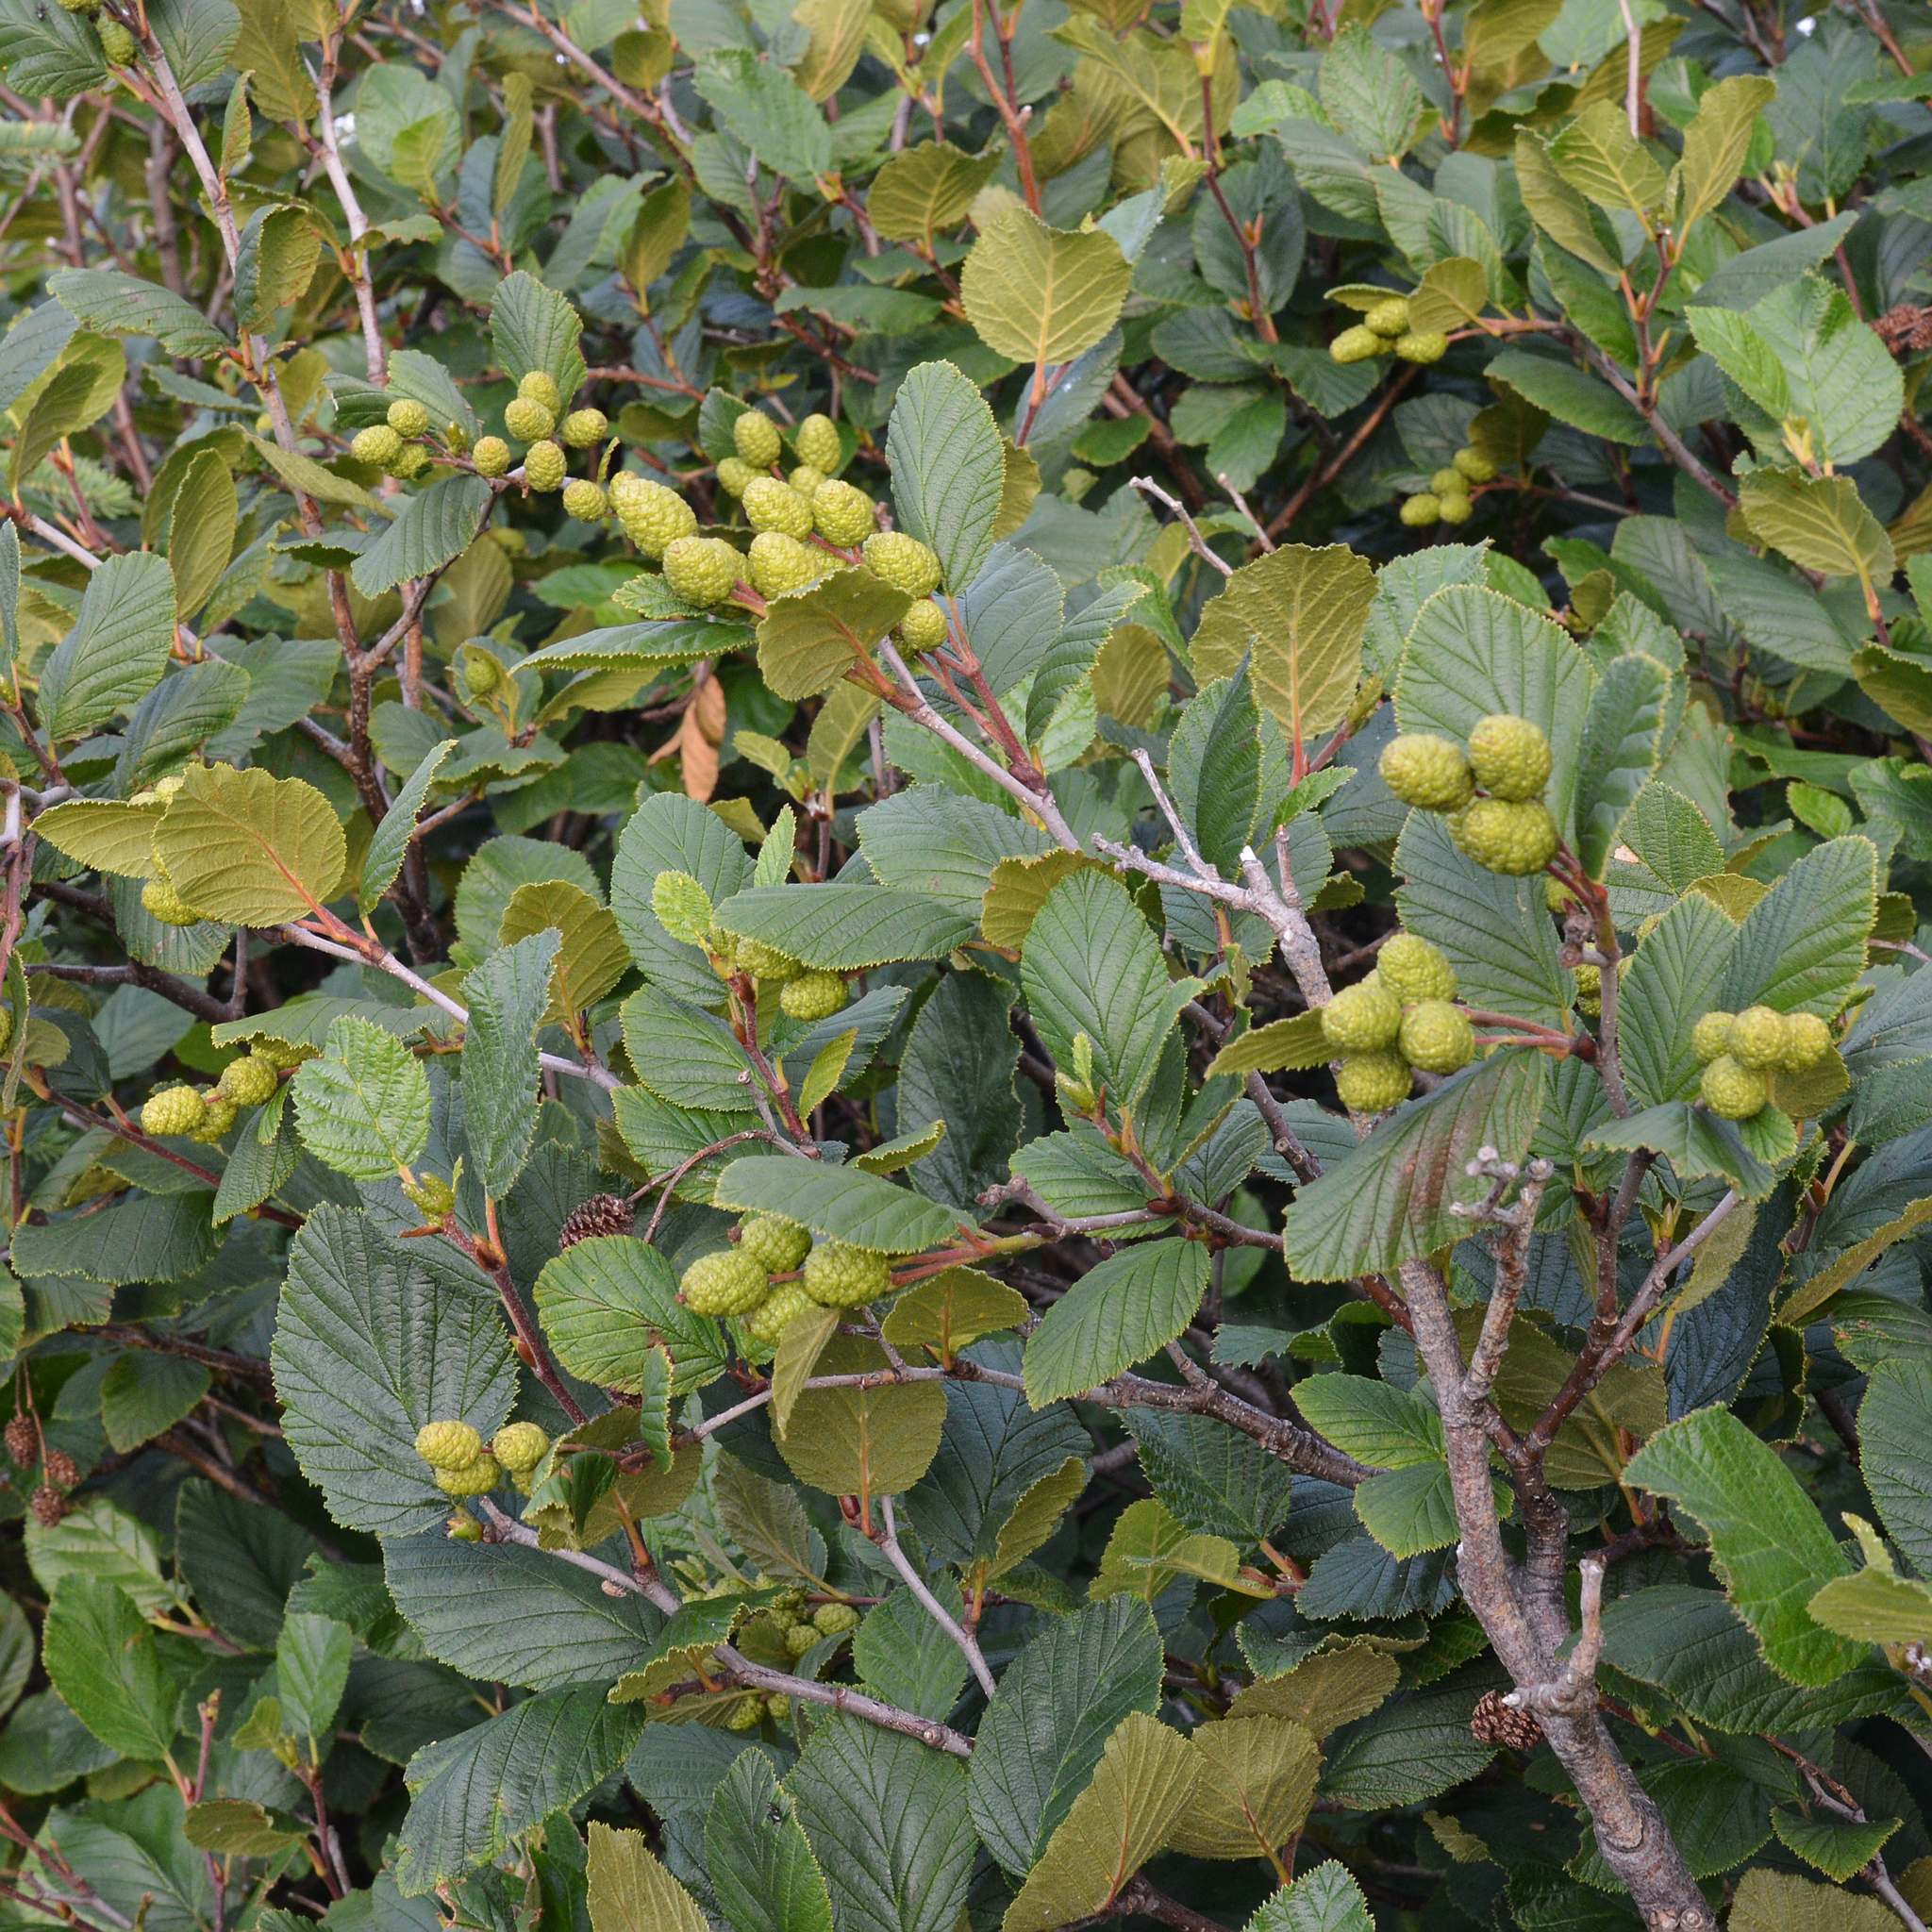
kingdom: Plantae
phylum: Tracheophyta
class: Magnoliopsida
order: Fagales
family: Betulaceae
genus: Alnus
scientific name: Alnus alnobetula
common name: Green alder
